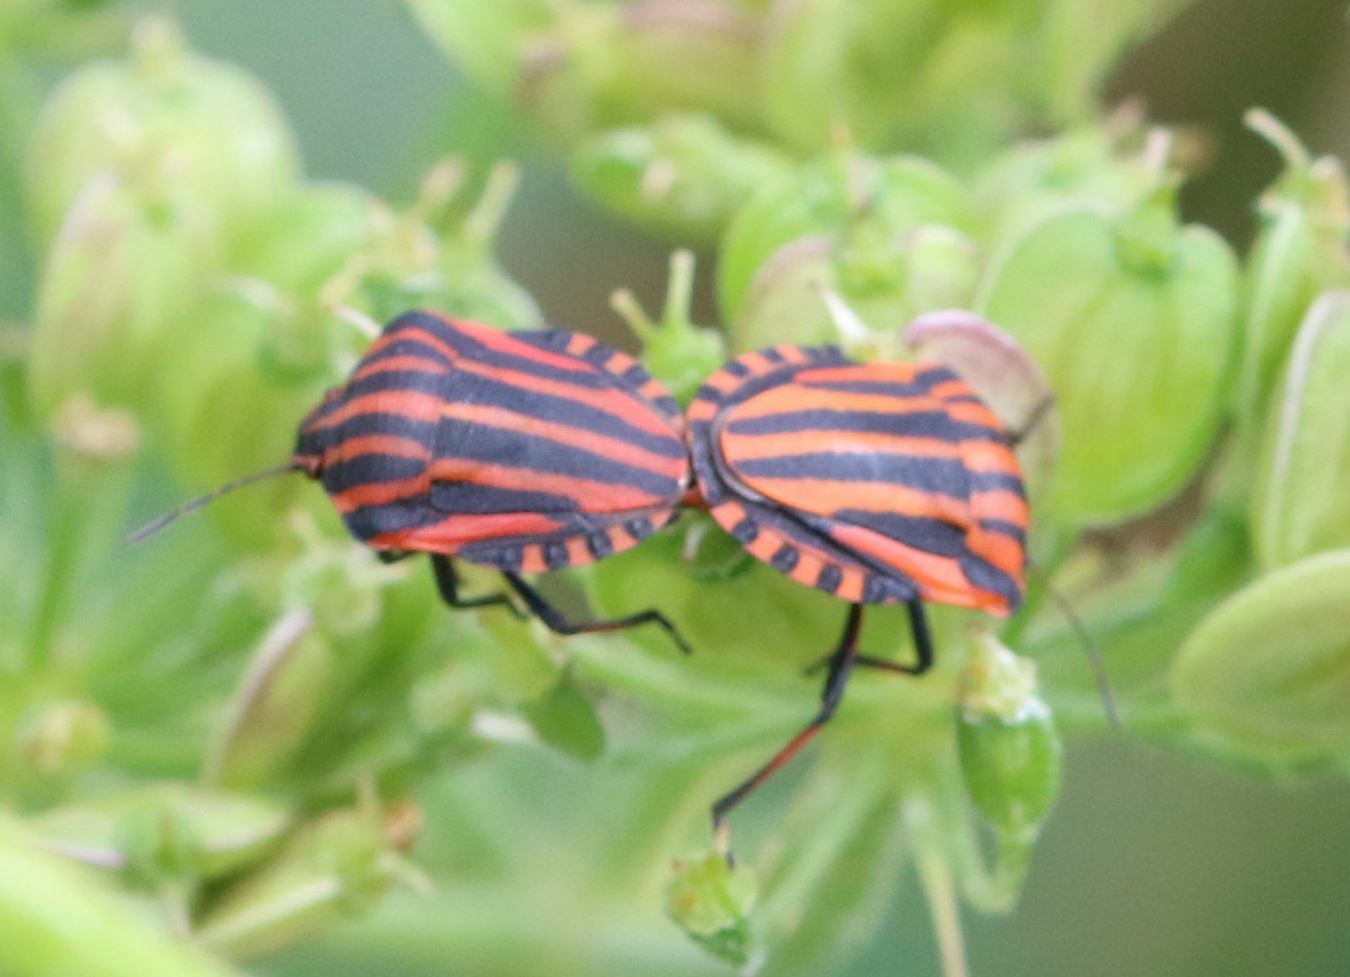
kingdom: Animalia
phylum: Arthropoda
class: Insecta
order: Hemiptera
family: Pentatomidae
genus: Graphosoma
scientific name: Graphosoma italicum
